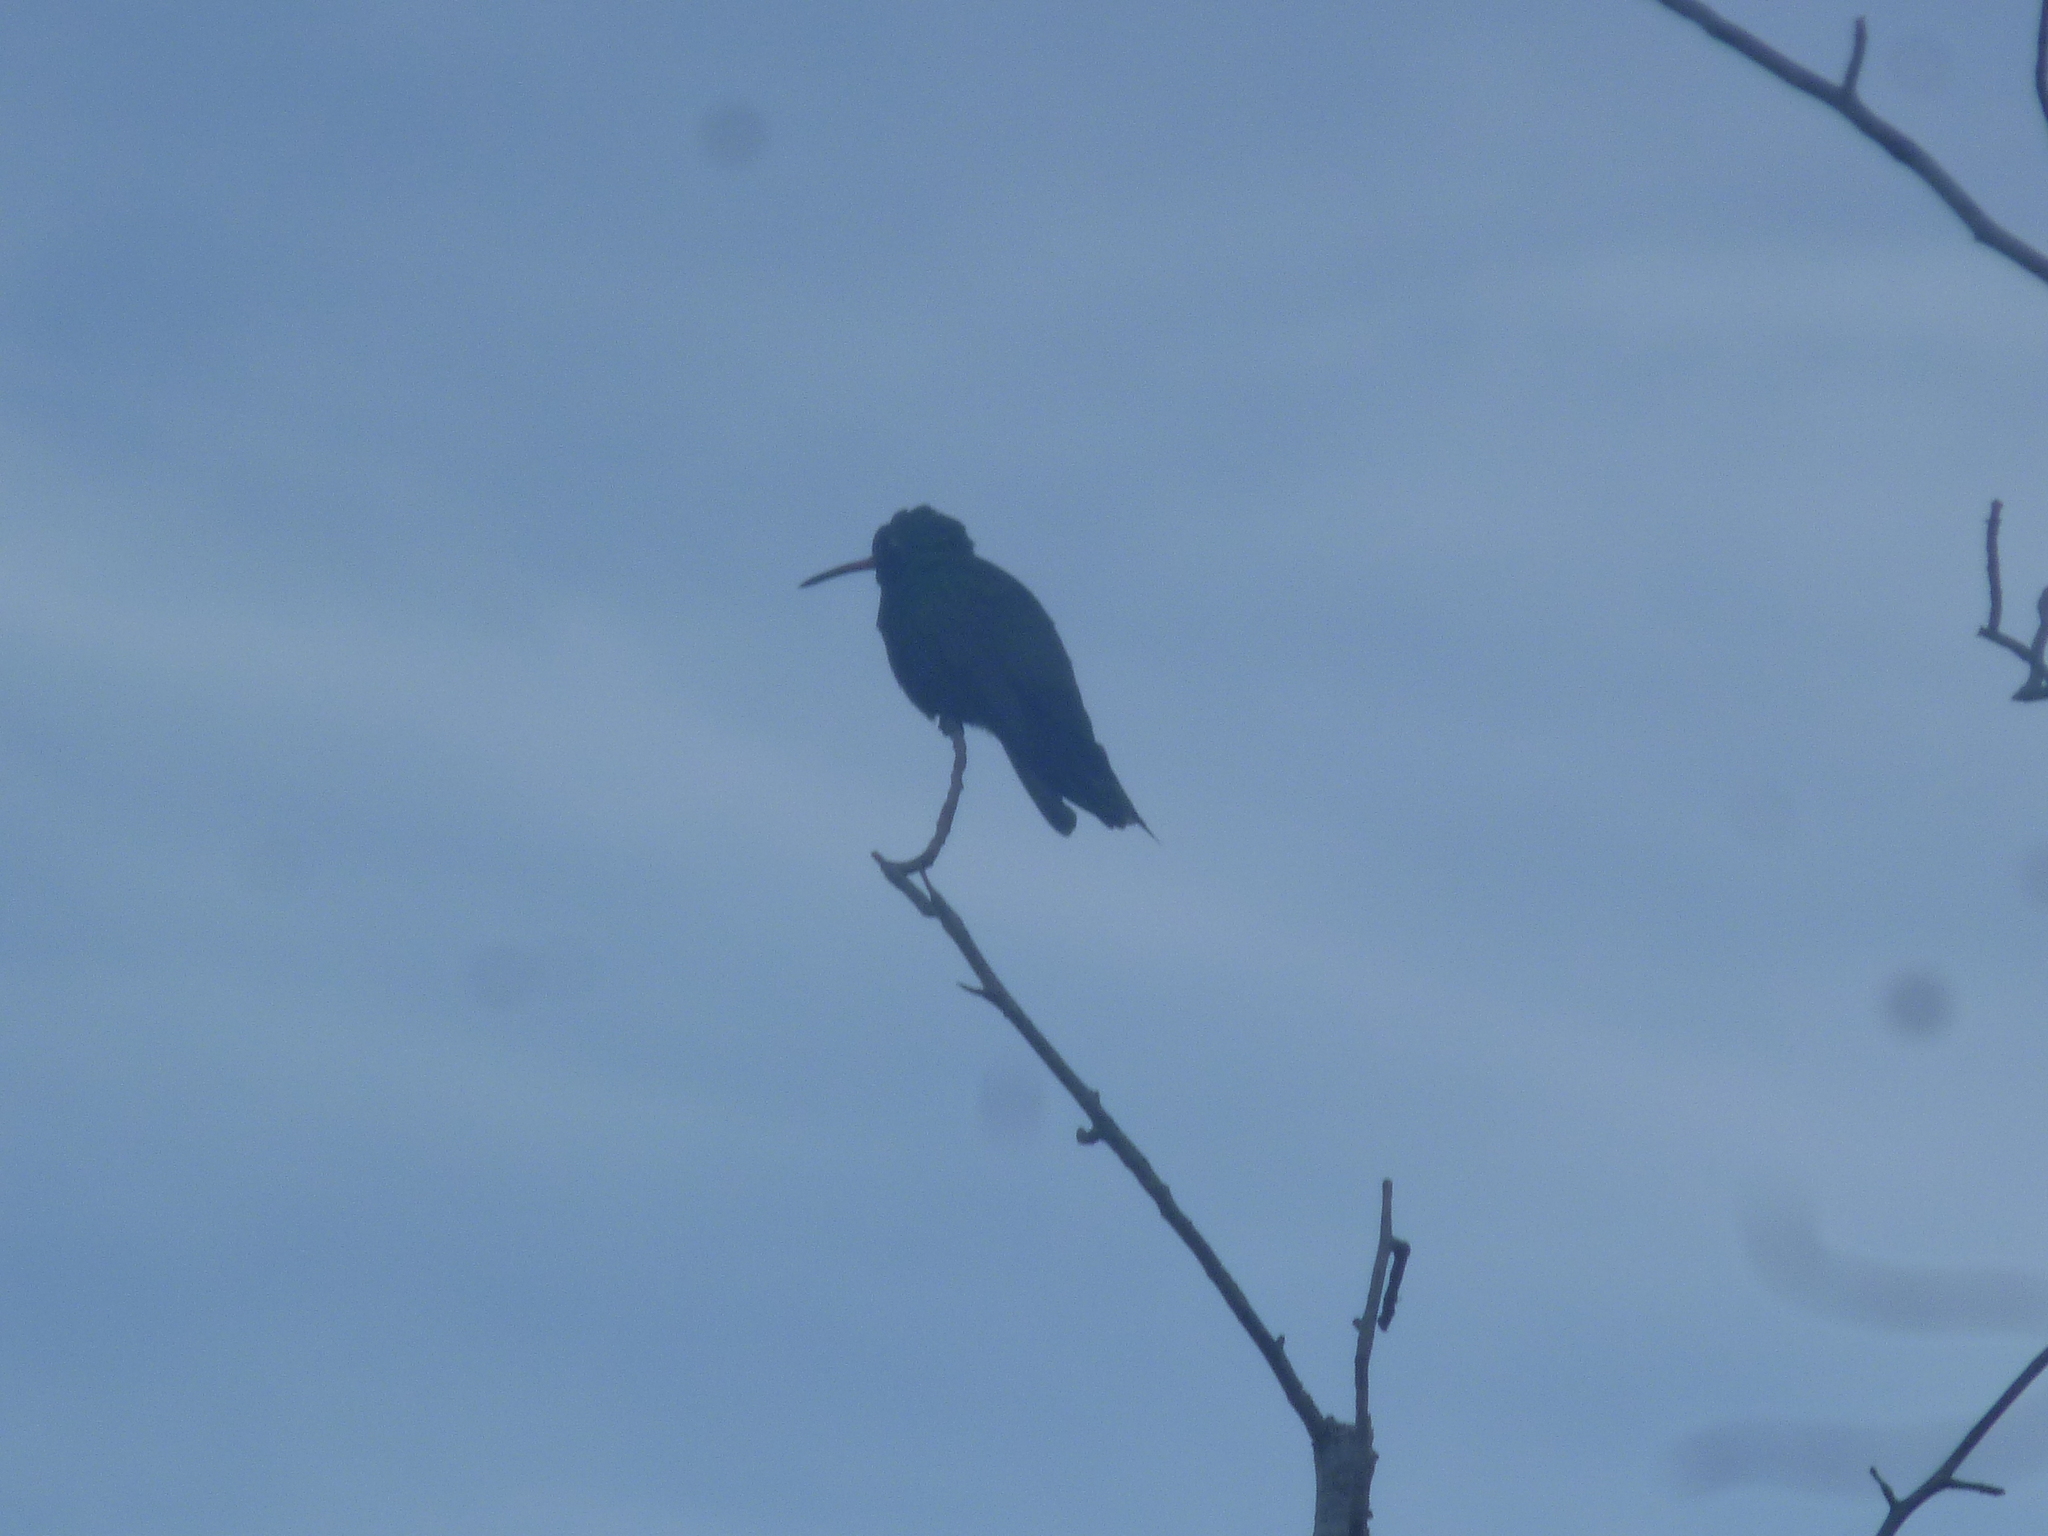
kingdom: Animalia
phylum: Chordata
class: Aves
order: Apodiformes
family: Trochilidae
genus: Cynanthus
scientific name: Cynanthus latirostris
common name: Broad-billed hummingbird
